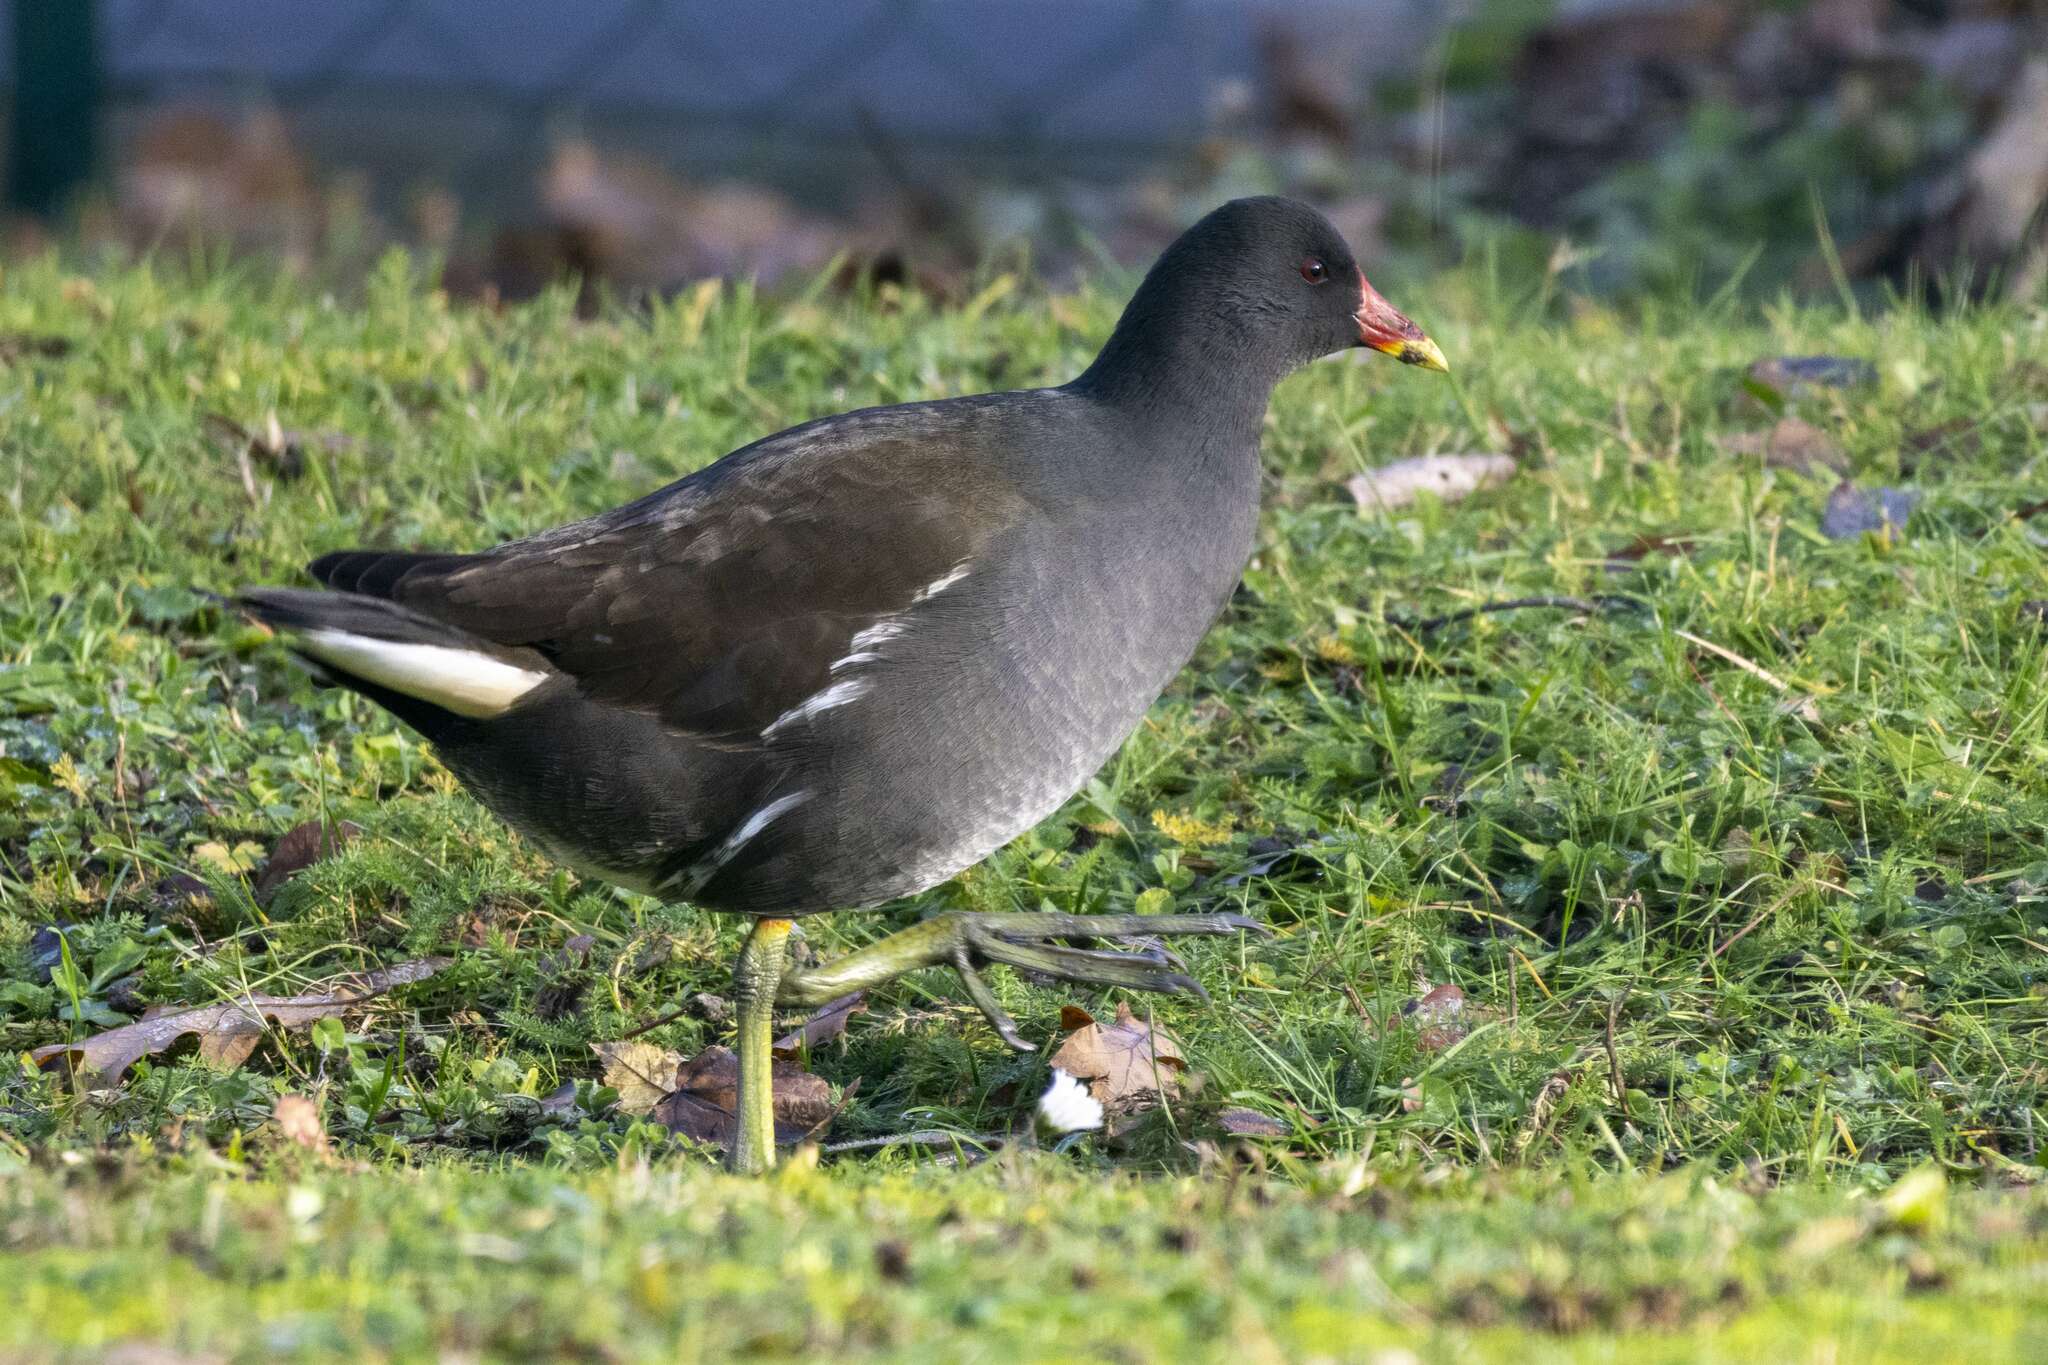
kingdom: Animalia
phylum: Chordata
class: Aves
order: Gruiformes
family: Rallidae
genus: Gallinula
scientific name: Gallinula chloropus
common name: Common moorhen
